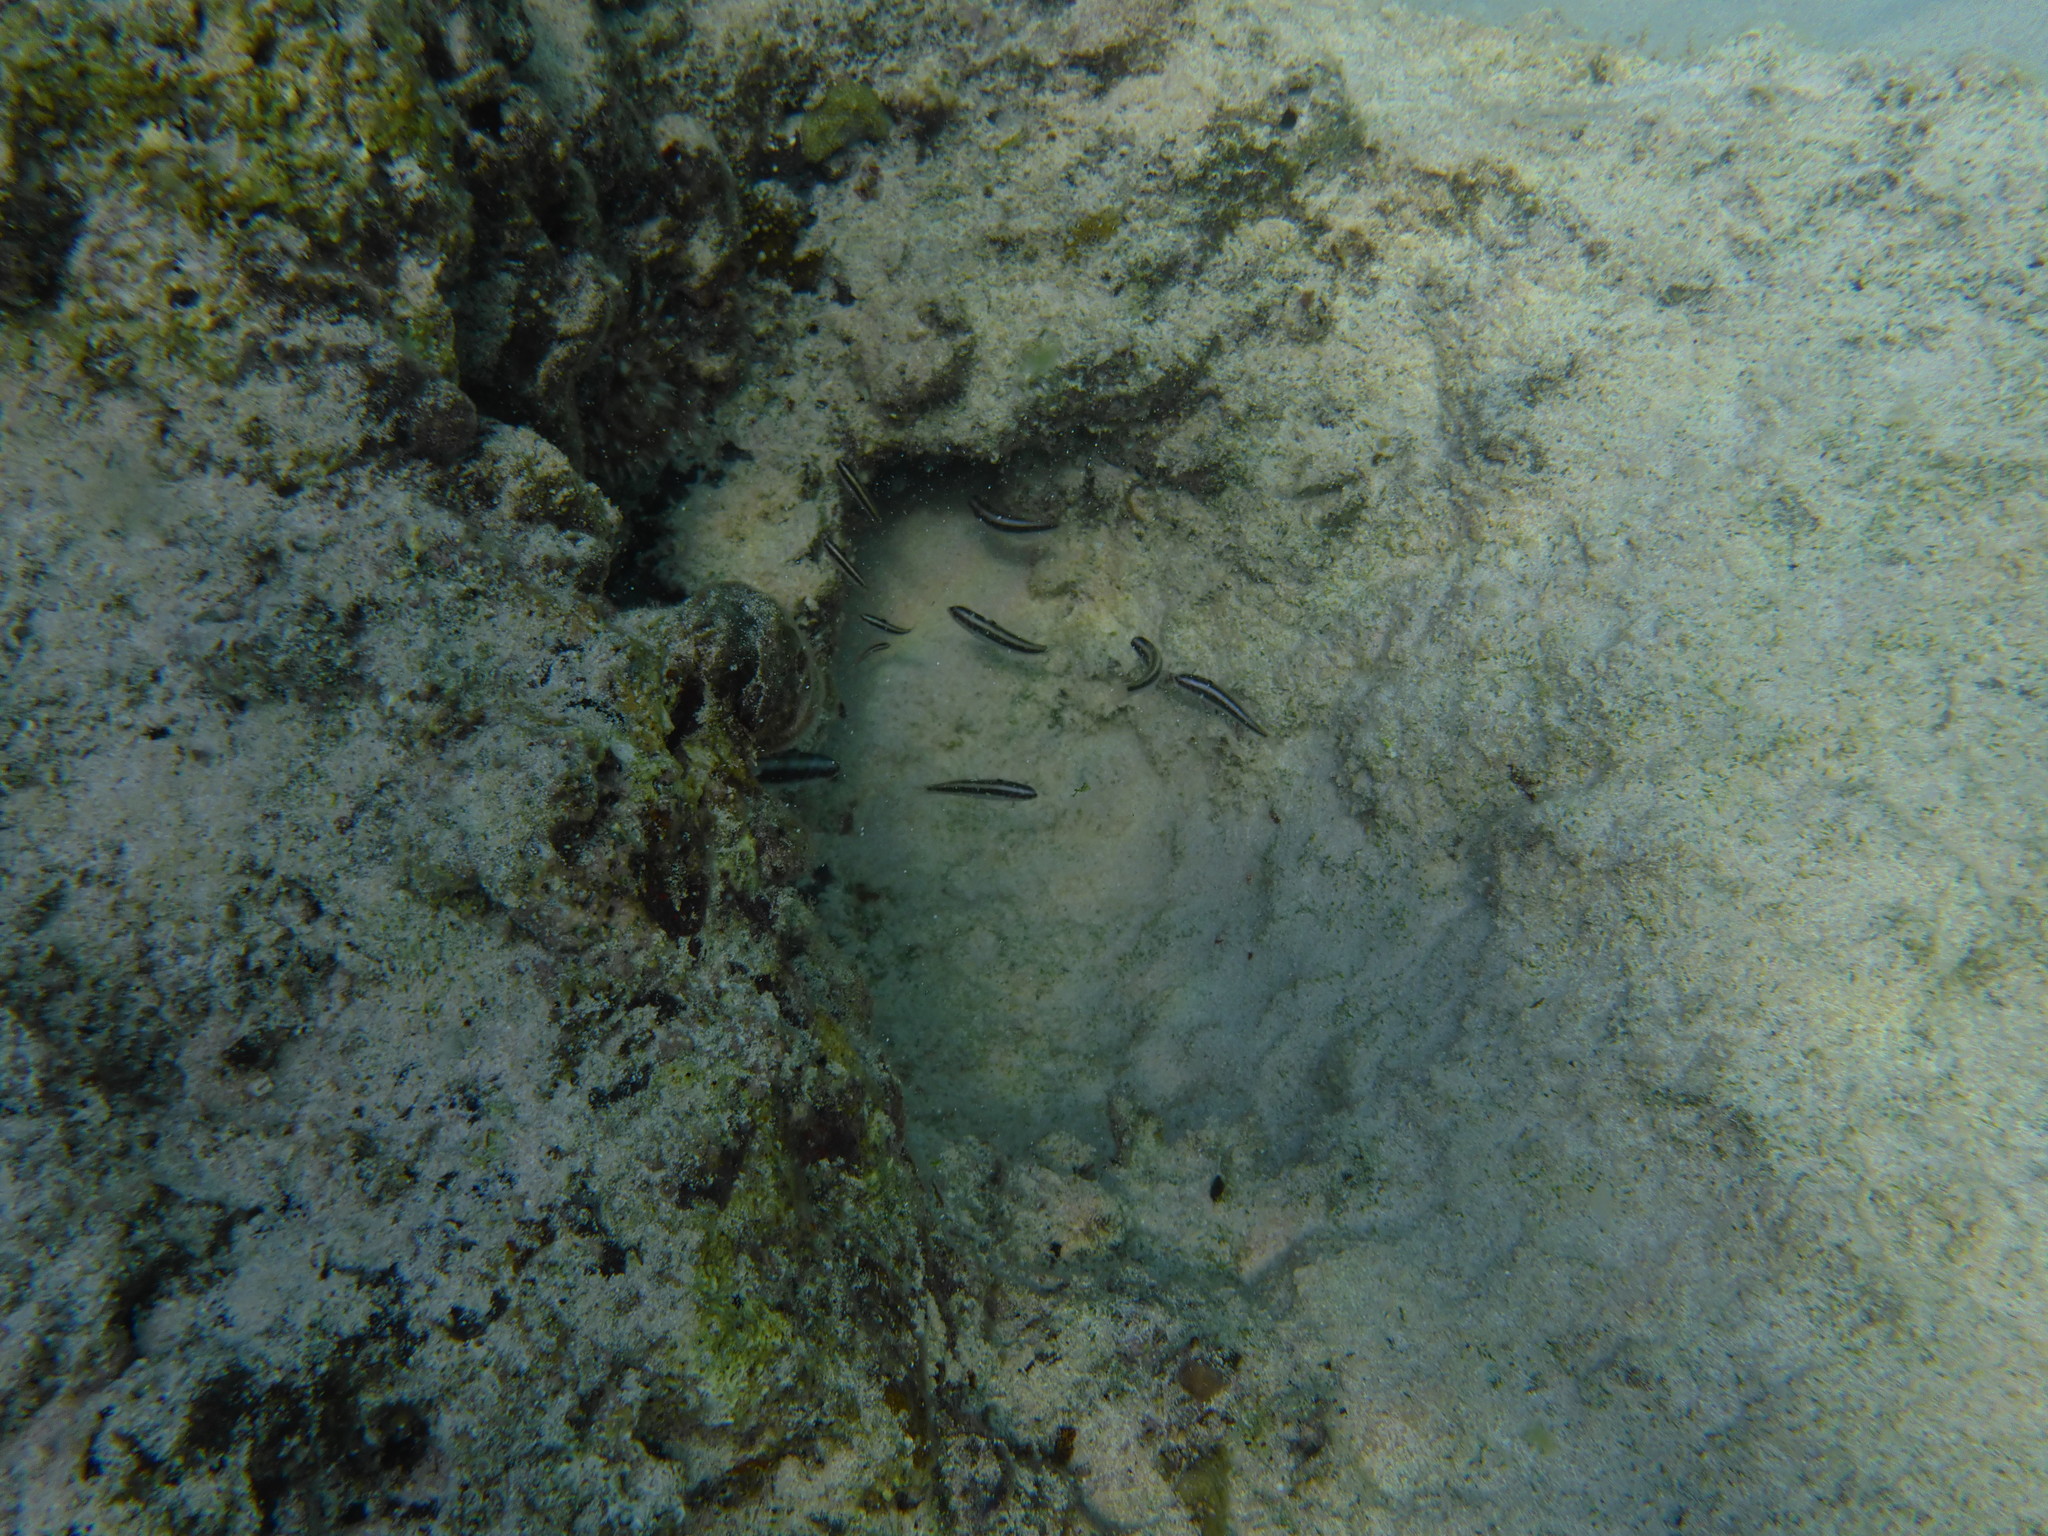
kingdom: Animalia
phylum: Chordata
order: Perciformes
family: Labridae
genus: Thalassoma
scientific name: Thalassoma bifasciatum
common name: Bluehead wrasse
